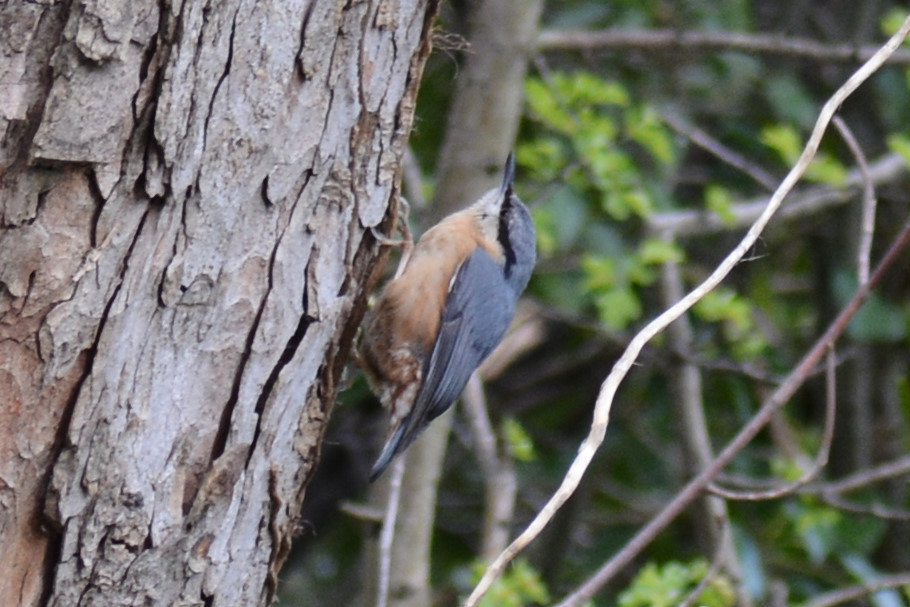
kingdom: Animalia
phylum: Chordata
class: Aves
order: Passeriformes
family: Sittidae
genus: Sitta
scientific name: Sitta europaea
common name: Eurasian nuthatch
